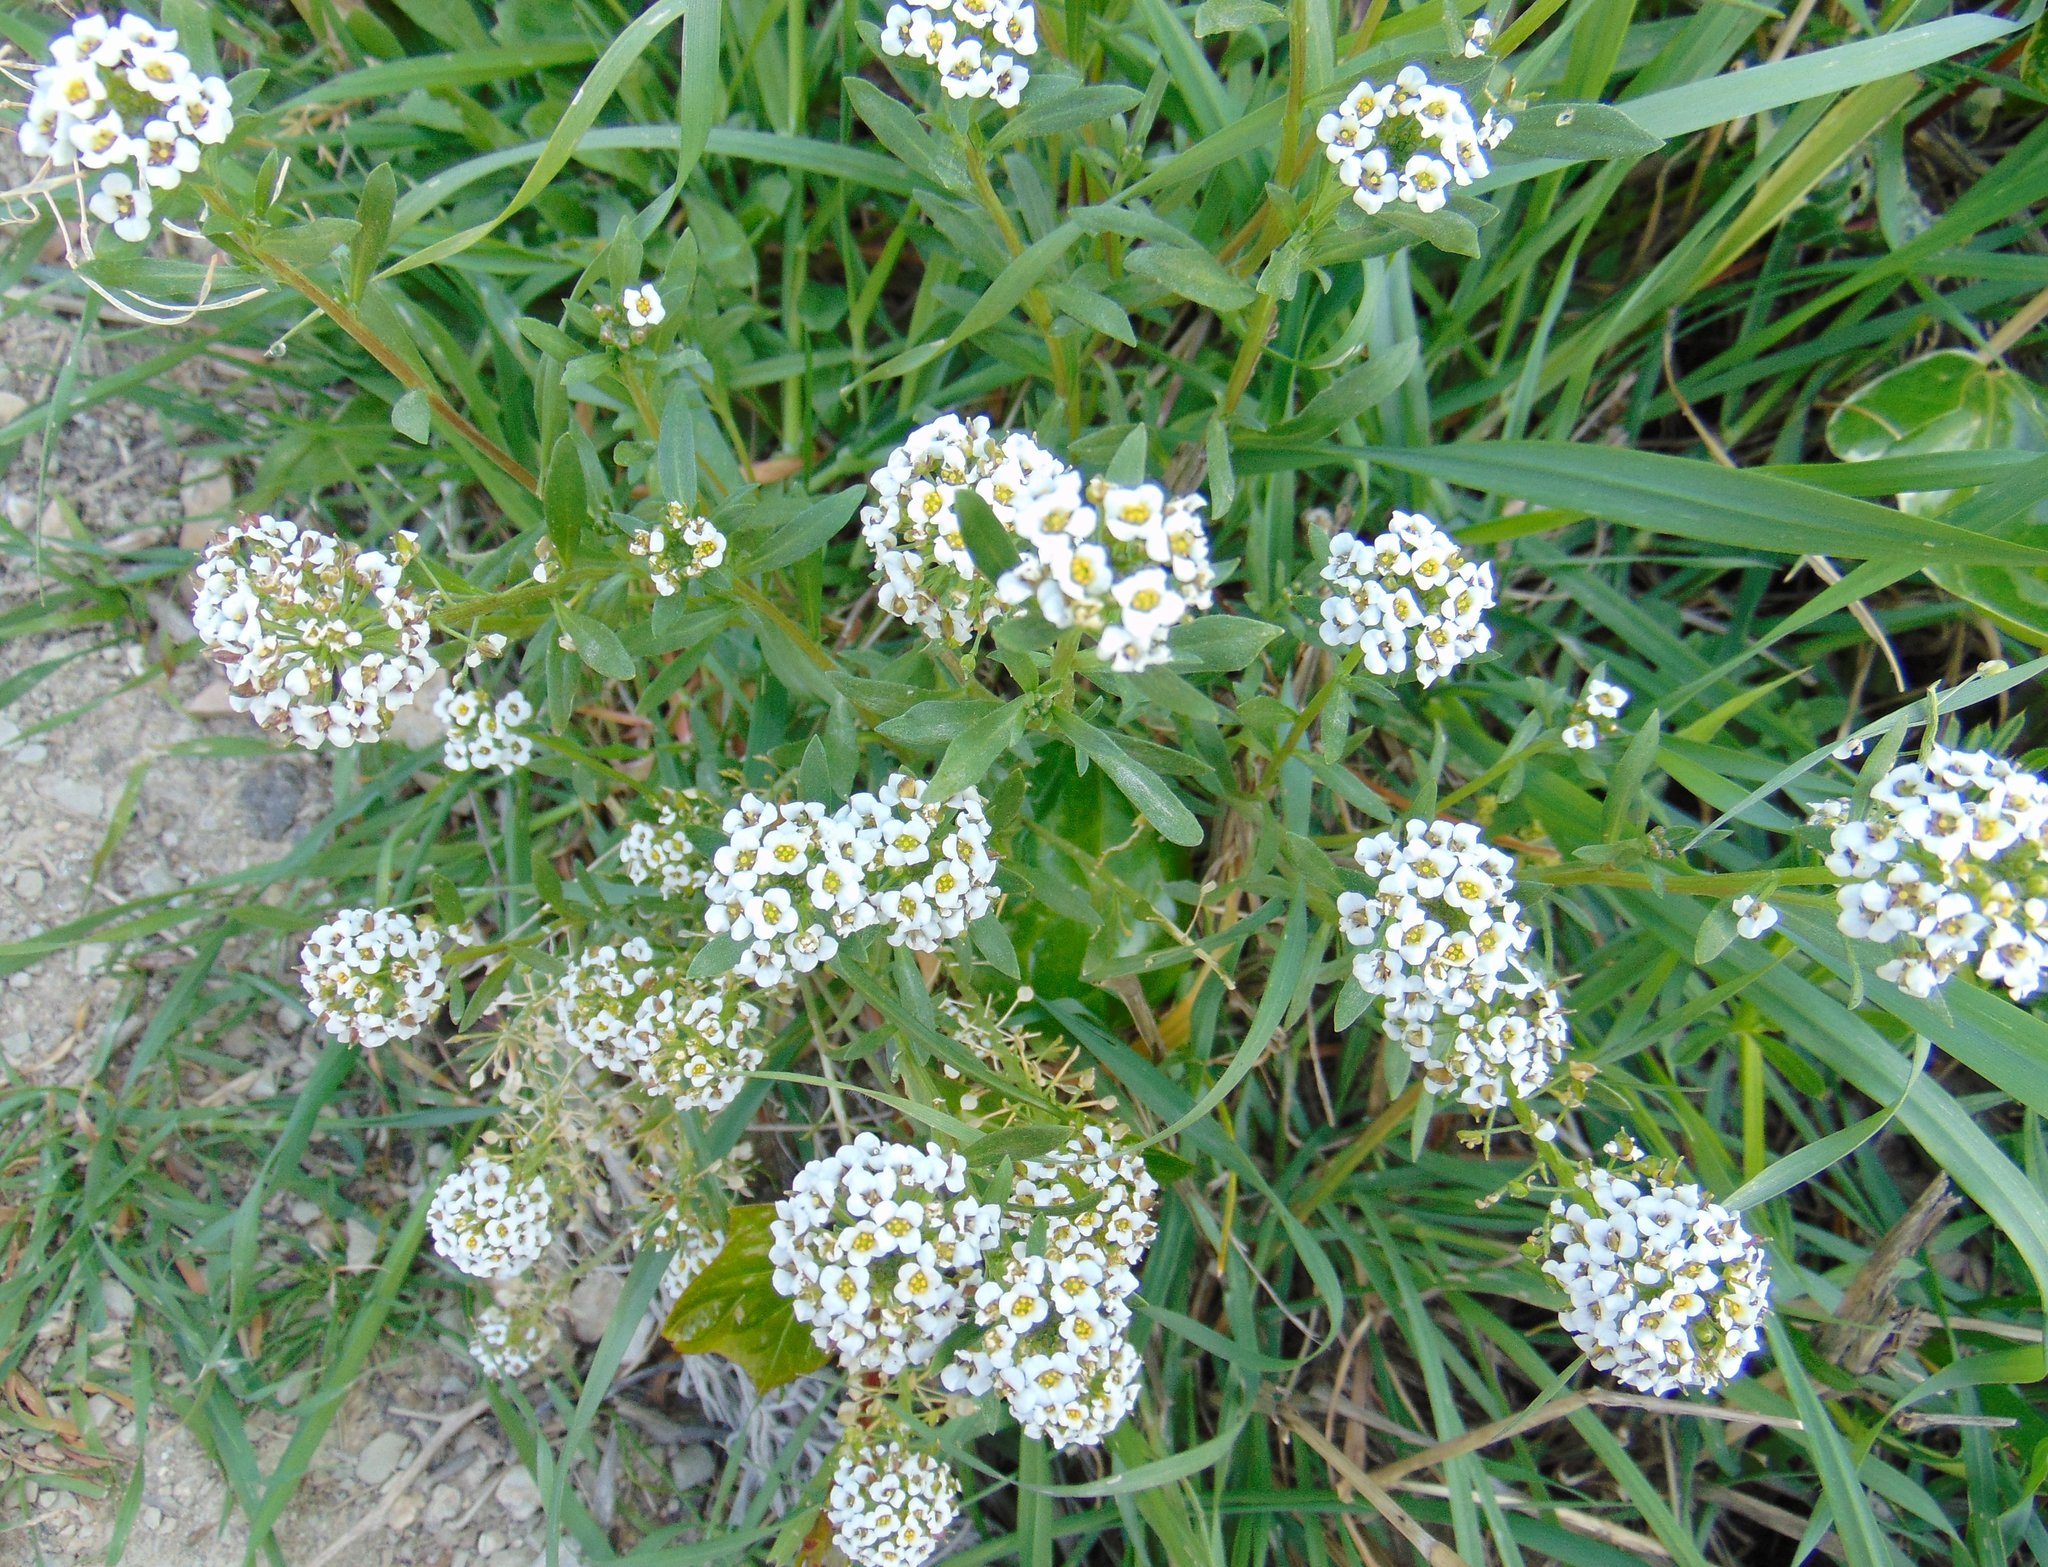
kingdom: Plantae
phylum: Tracheophyta
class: Magnoliopsida
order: Brassicales
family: Brassicaceae
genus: Lobularia
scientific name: Lobularia maritima
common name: Sweet alison
